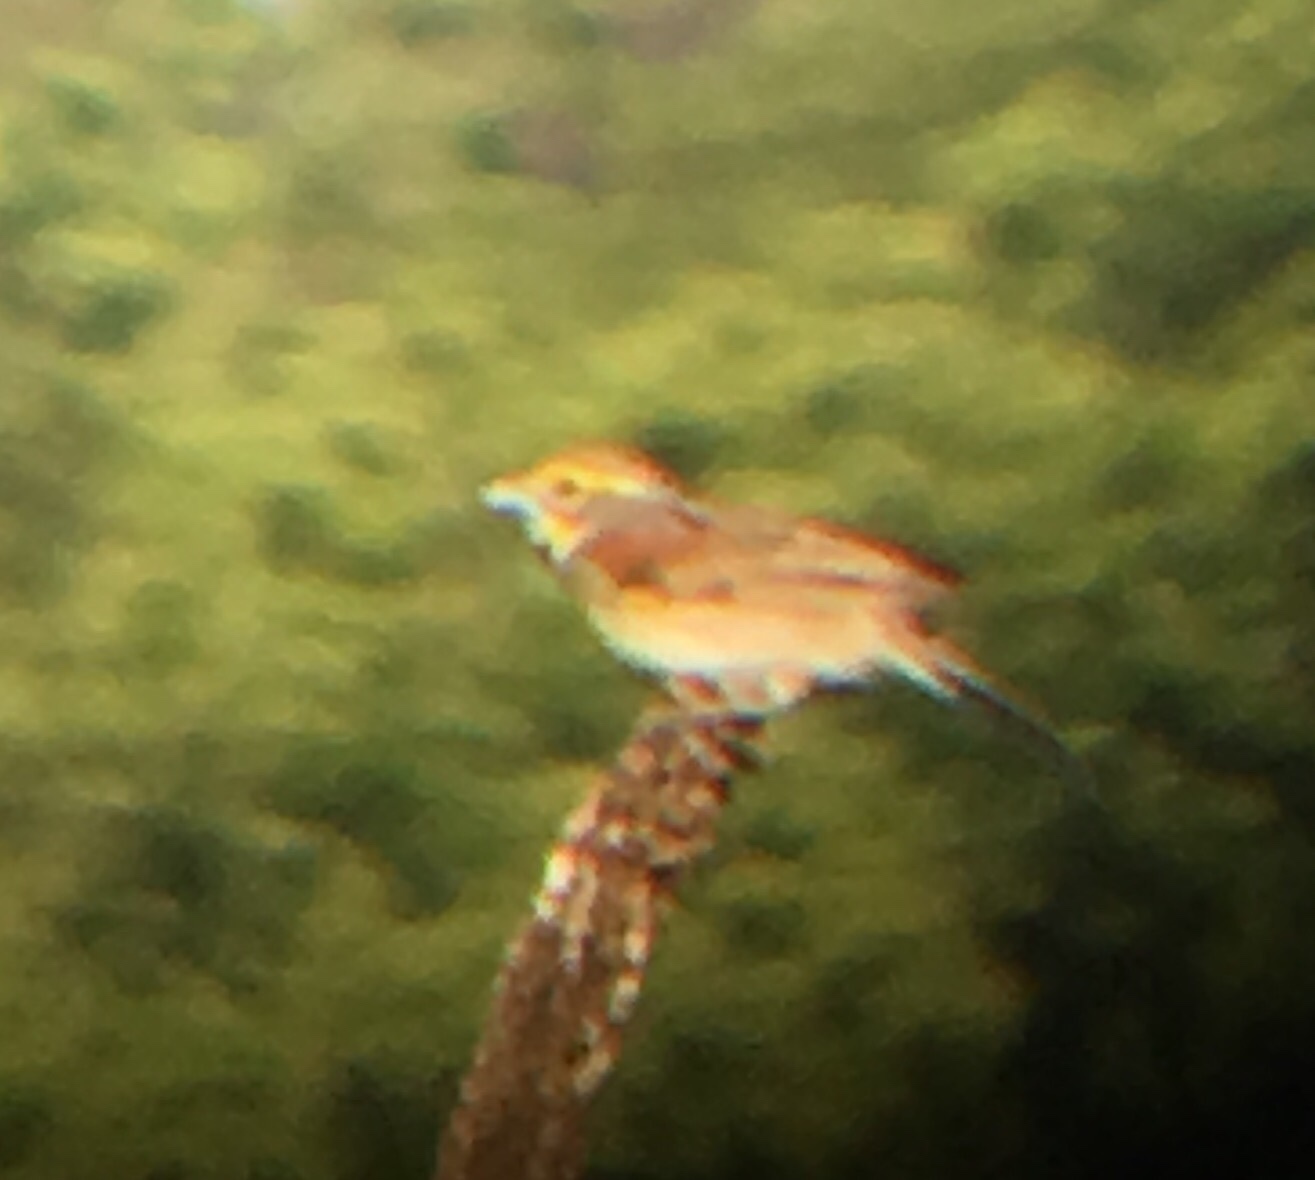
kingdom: Animalia
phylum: Chordata
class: Aves
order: Passeriformes
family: Cardinalidae
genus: Spiza
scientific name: Spiza americana
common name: Dickcissel
